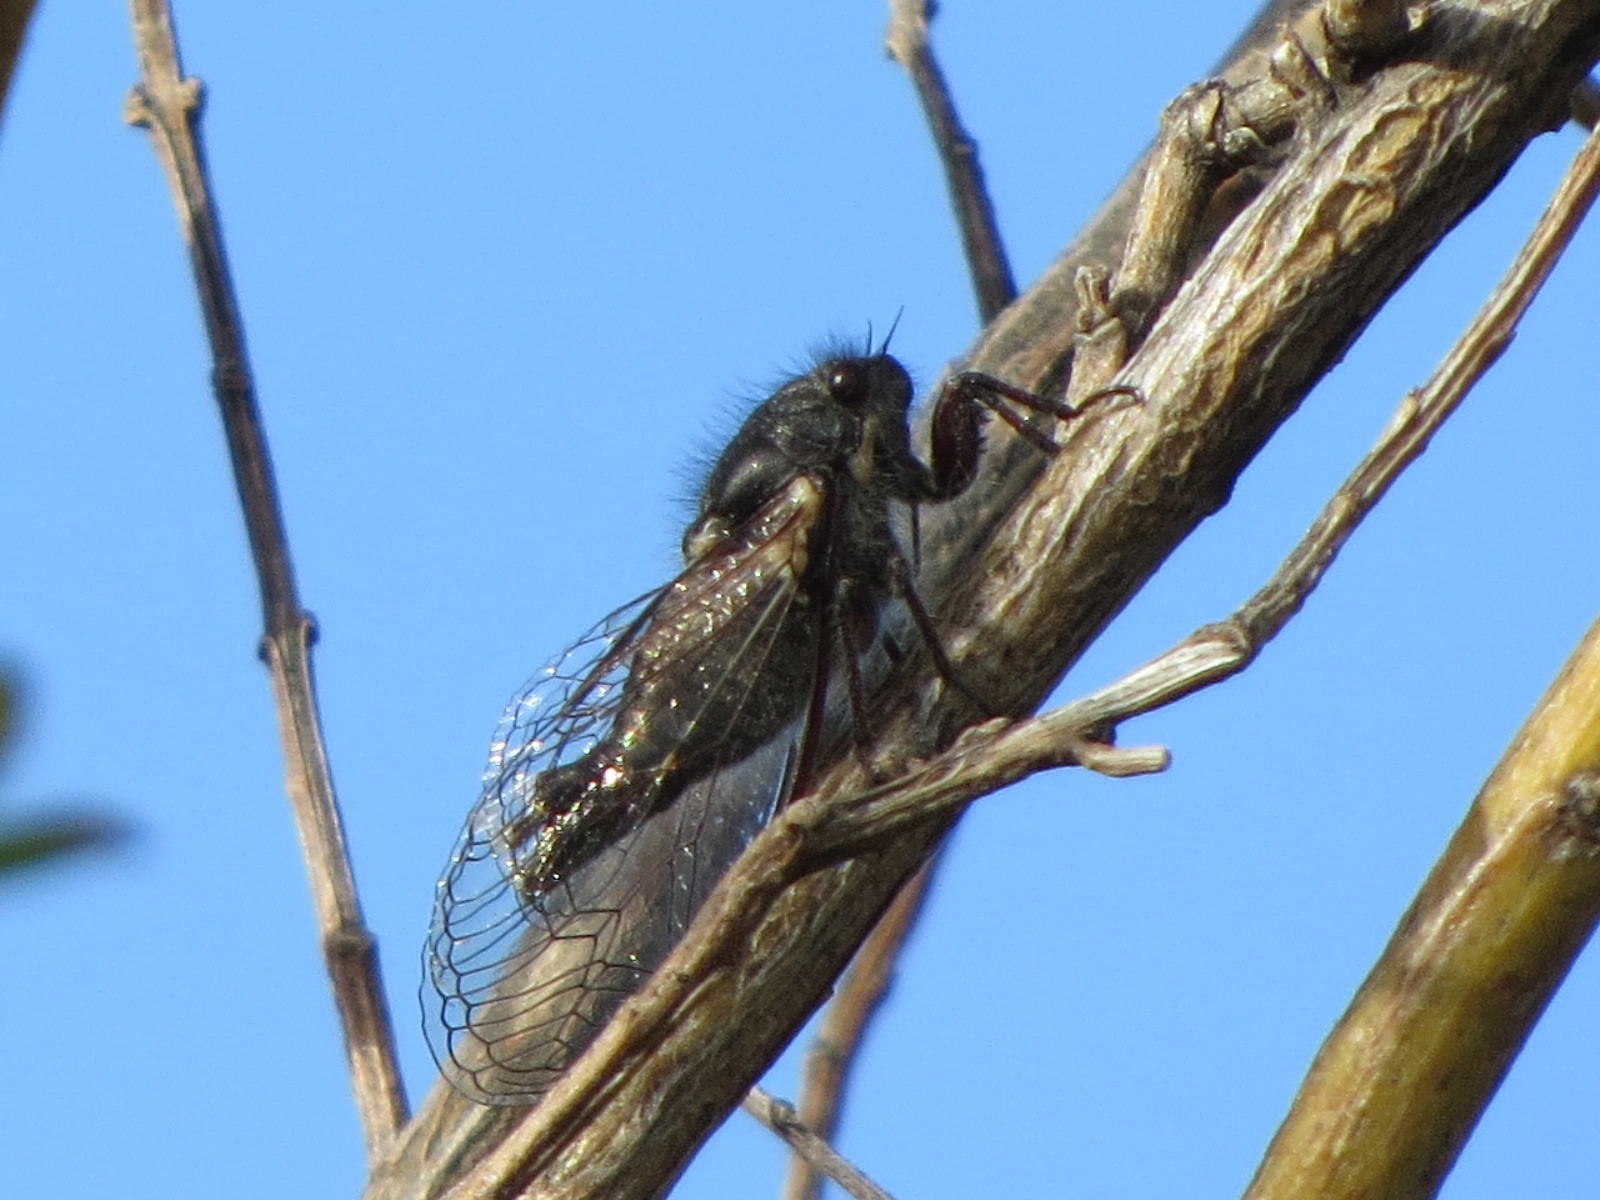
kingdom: Animalia
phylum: Arthropoda
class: Insecta
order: Hemiptera
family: Cicadidae
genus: Platypedia
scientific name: Platypedia minor
